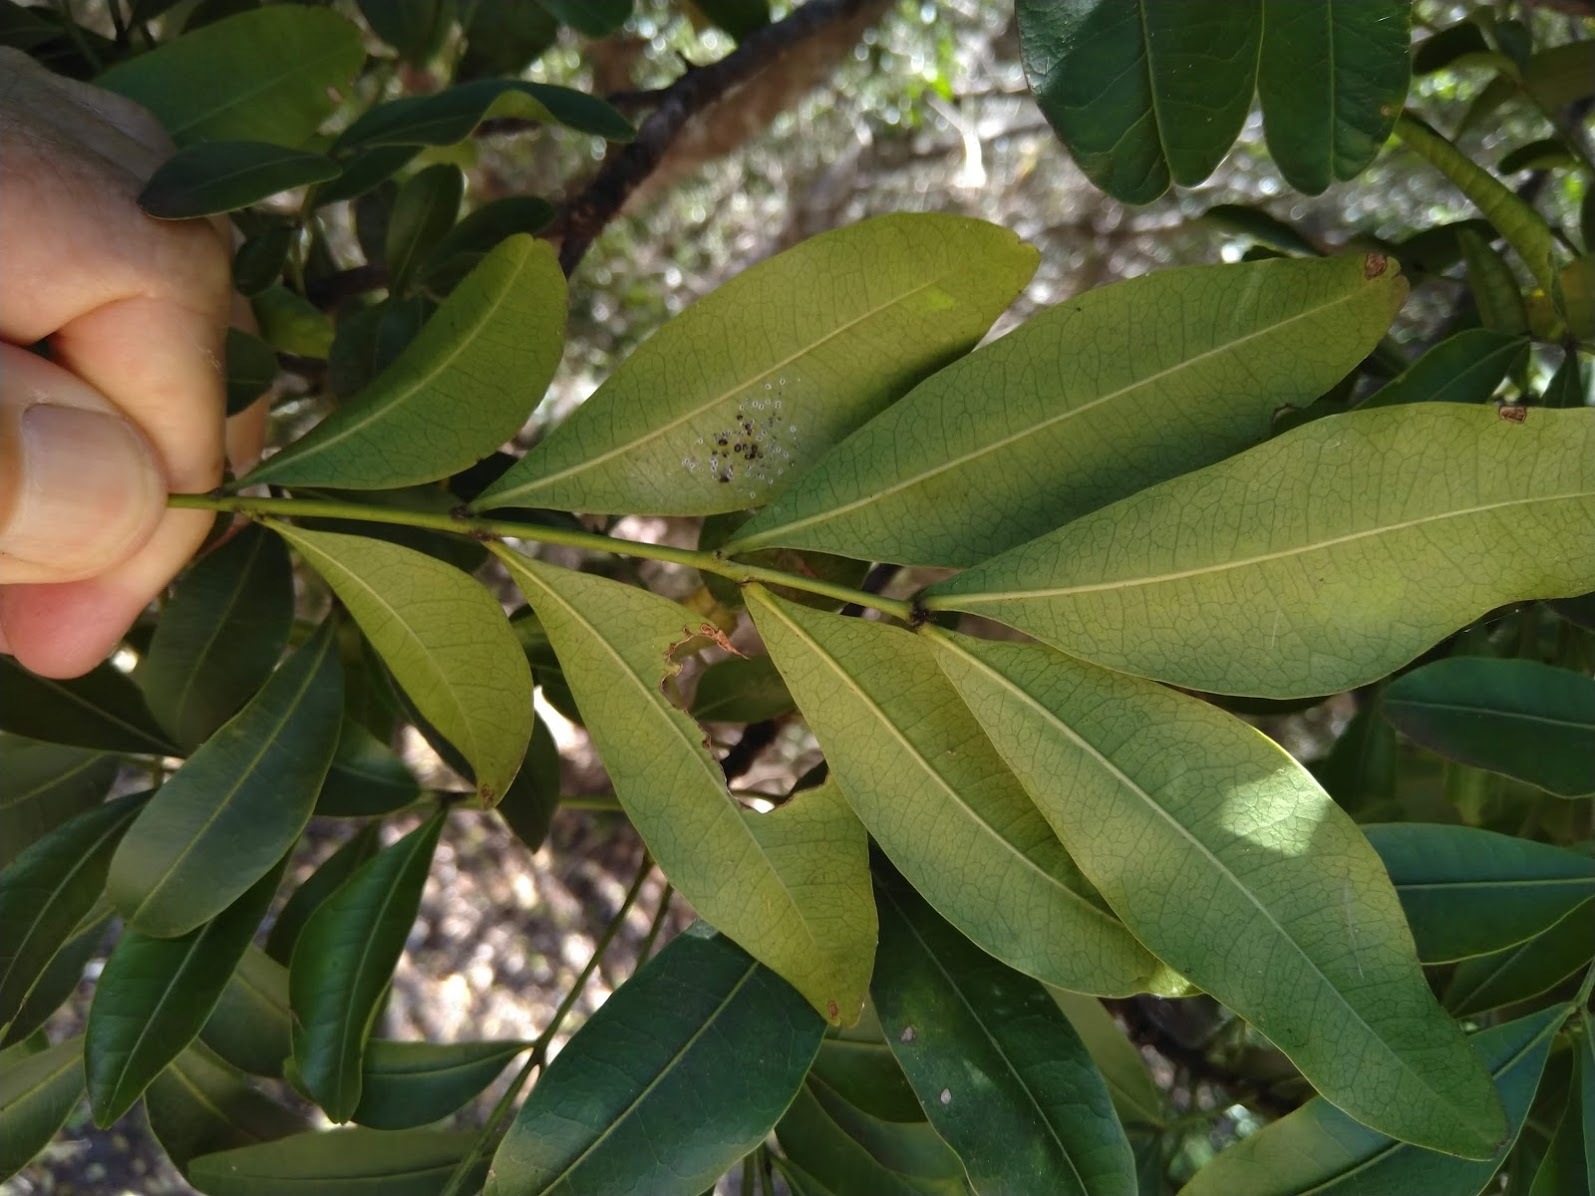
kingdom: Plantae
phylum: Tracheophyta
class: Magnoliopsida
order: Sapindales
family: Meliaceae
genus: Owenia
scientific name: Owenia venosa
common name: Crow's-apple
